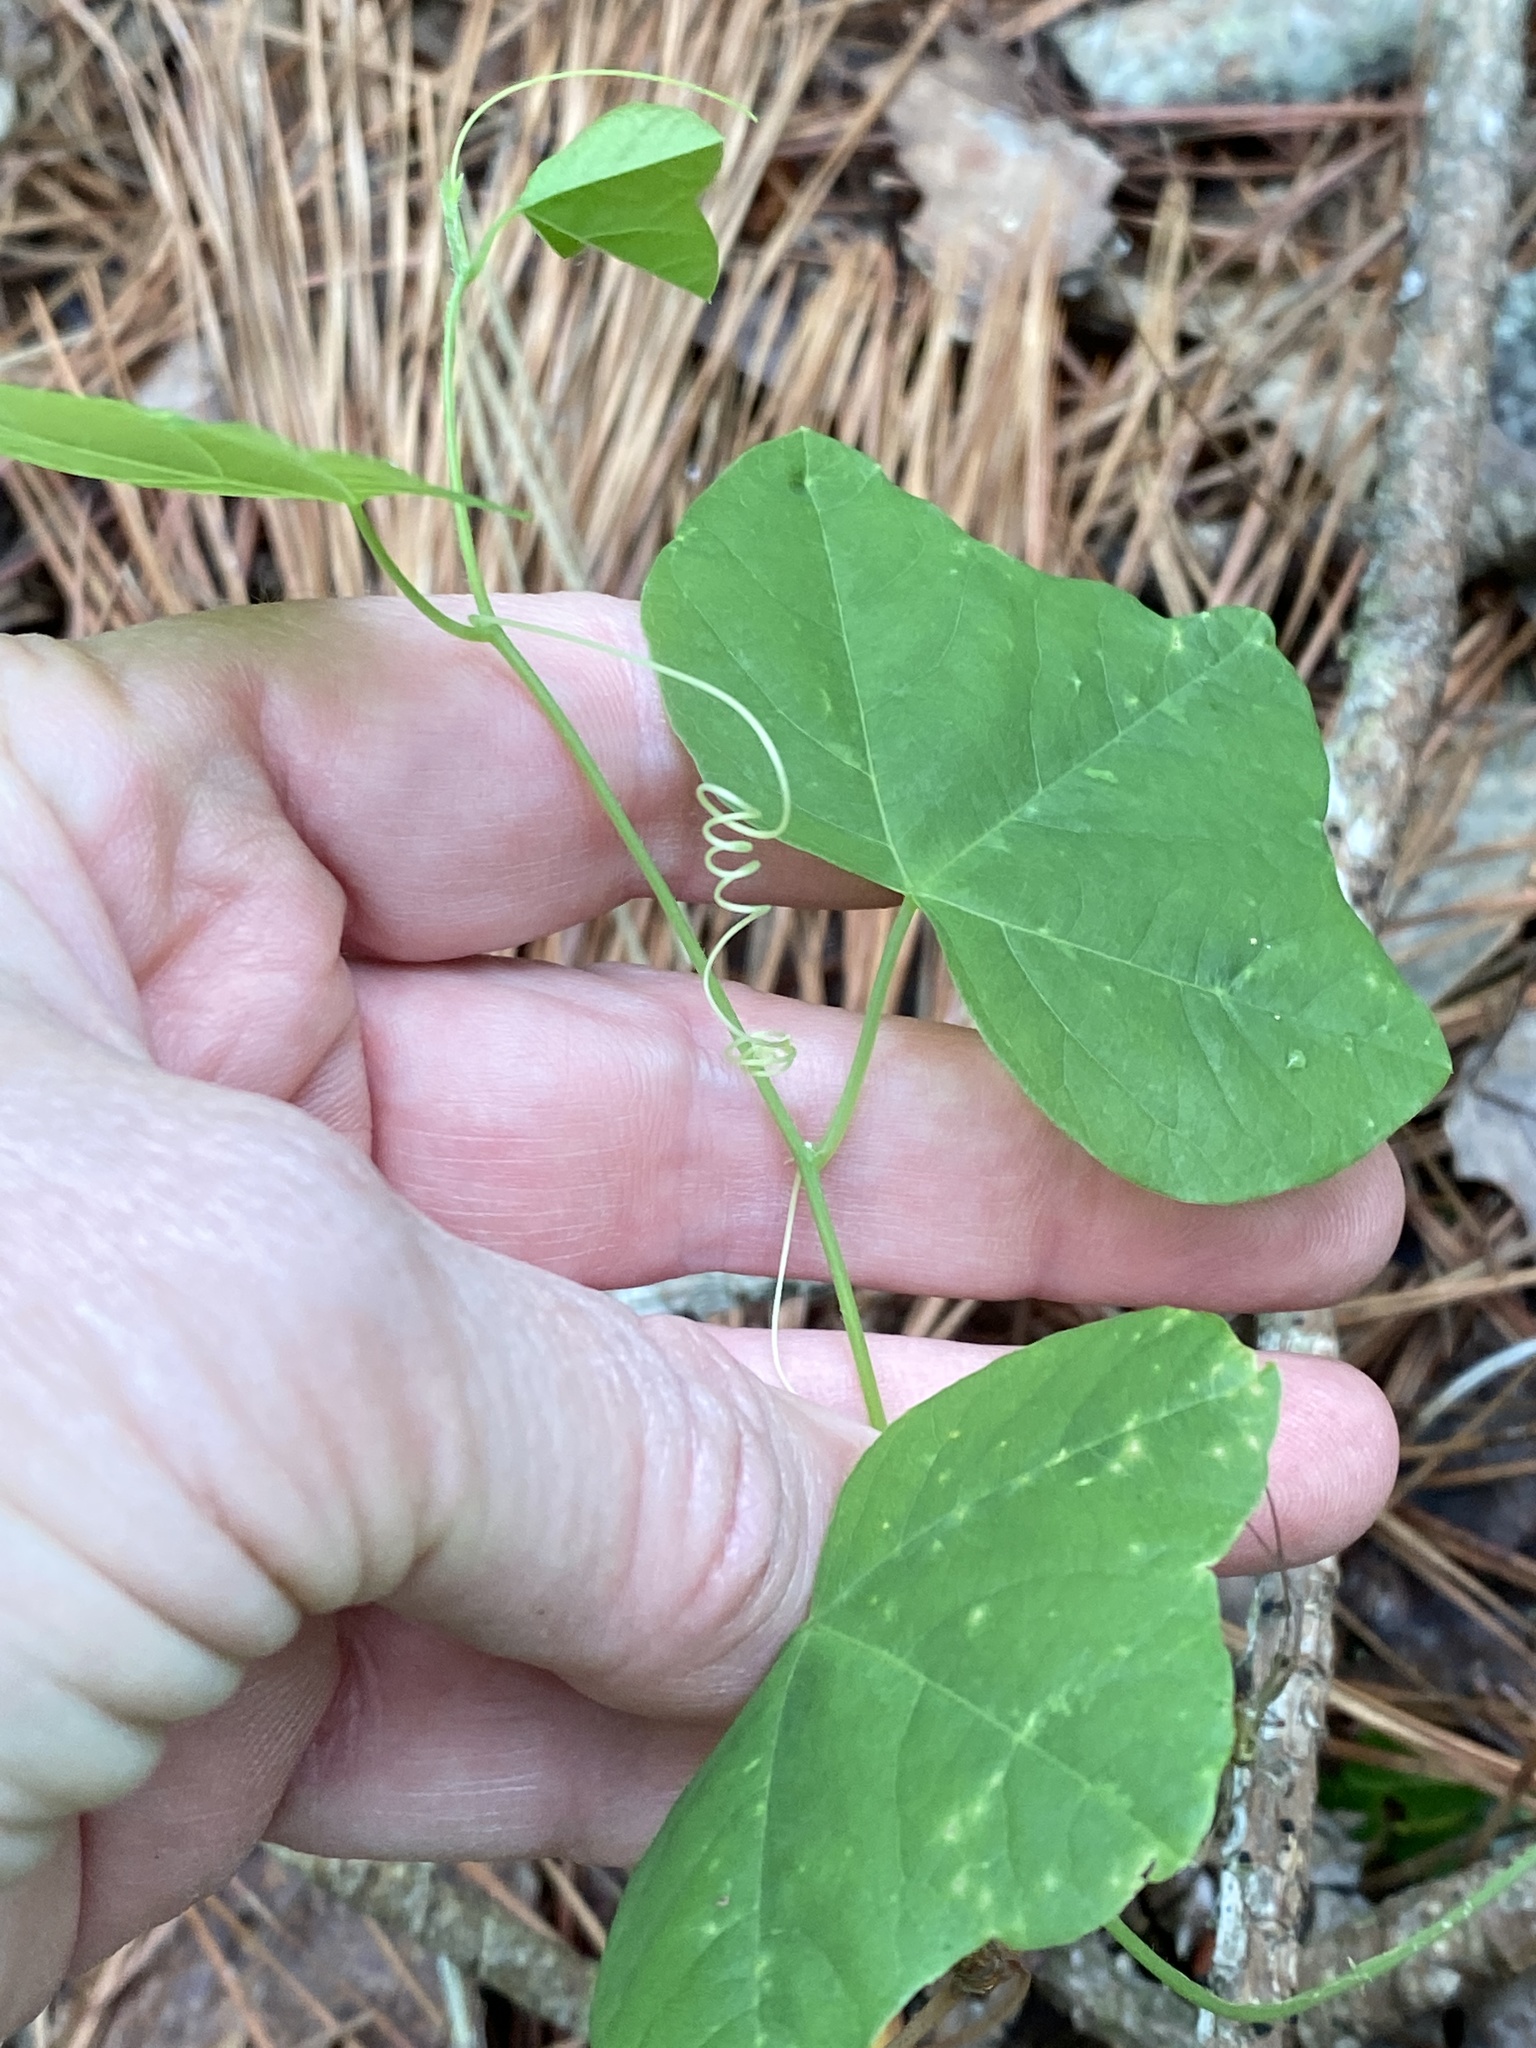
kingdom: Plantae
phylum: Tracheophyta
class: Magnoliopsida
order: Malpighiales
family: Passifloraceae
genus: Passiflora
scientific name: Passiflora lutea
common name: Yellow passionflower
